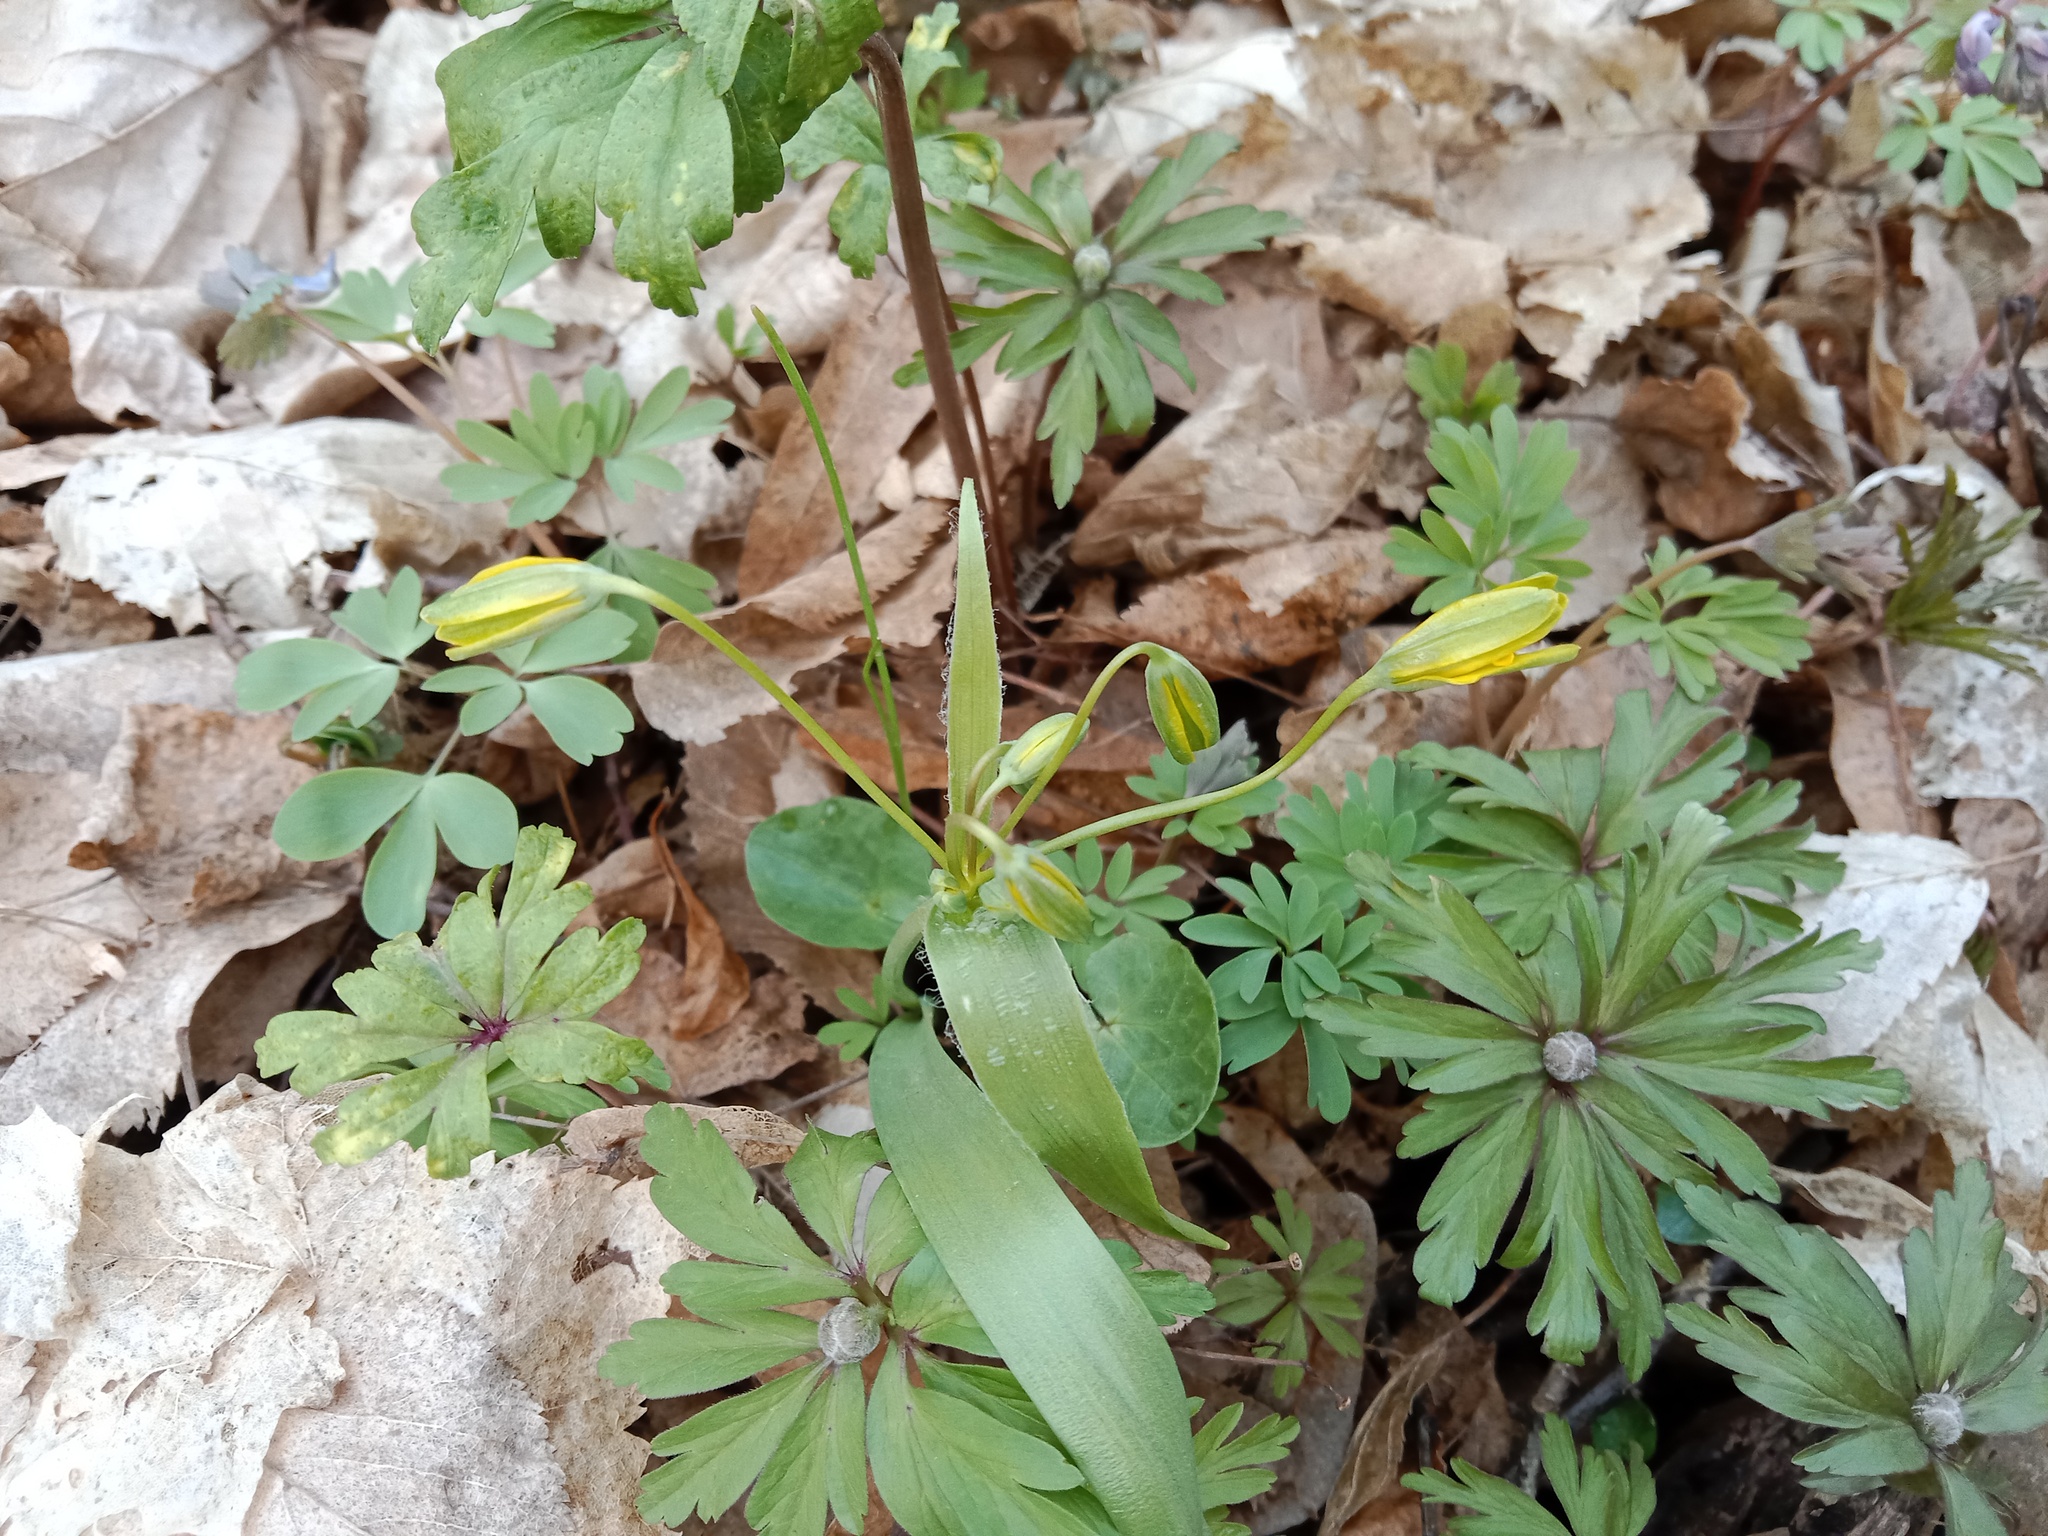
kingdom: Plantae
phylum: Tracheophyta
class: Liliopsida
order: Liliales
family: Liliaceae
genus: Gagea
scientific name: Gagea lutea
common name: Yellow star-of-bethlehem
